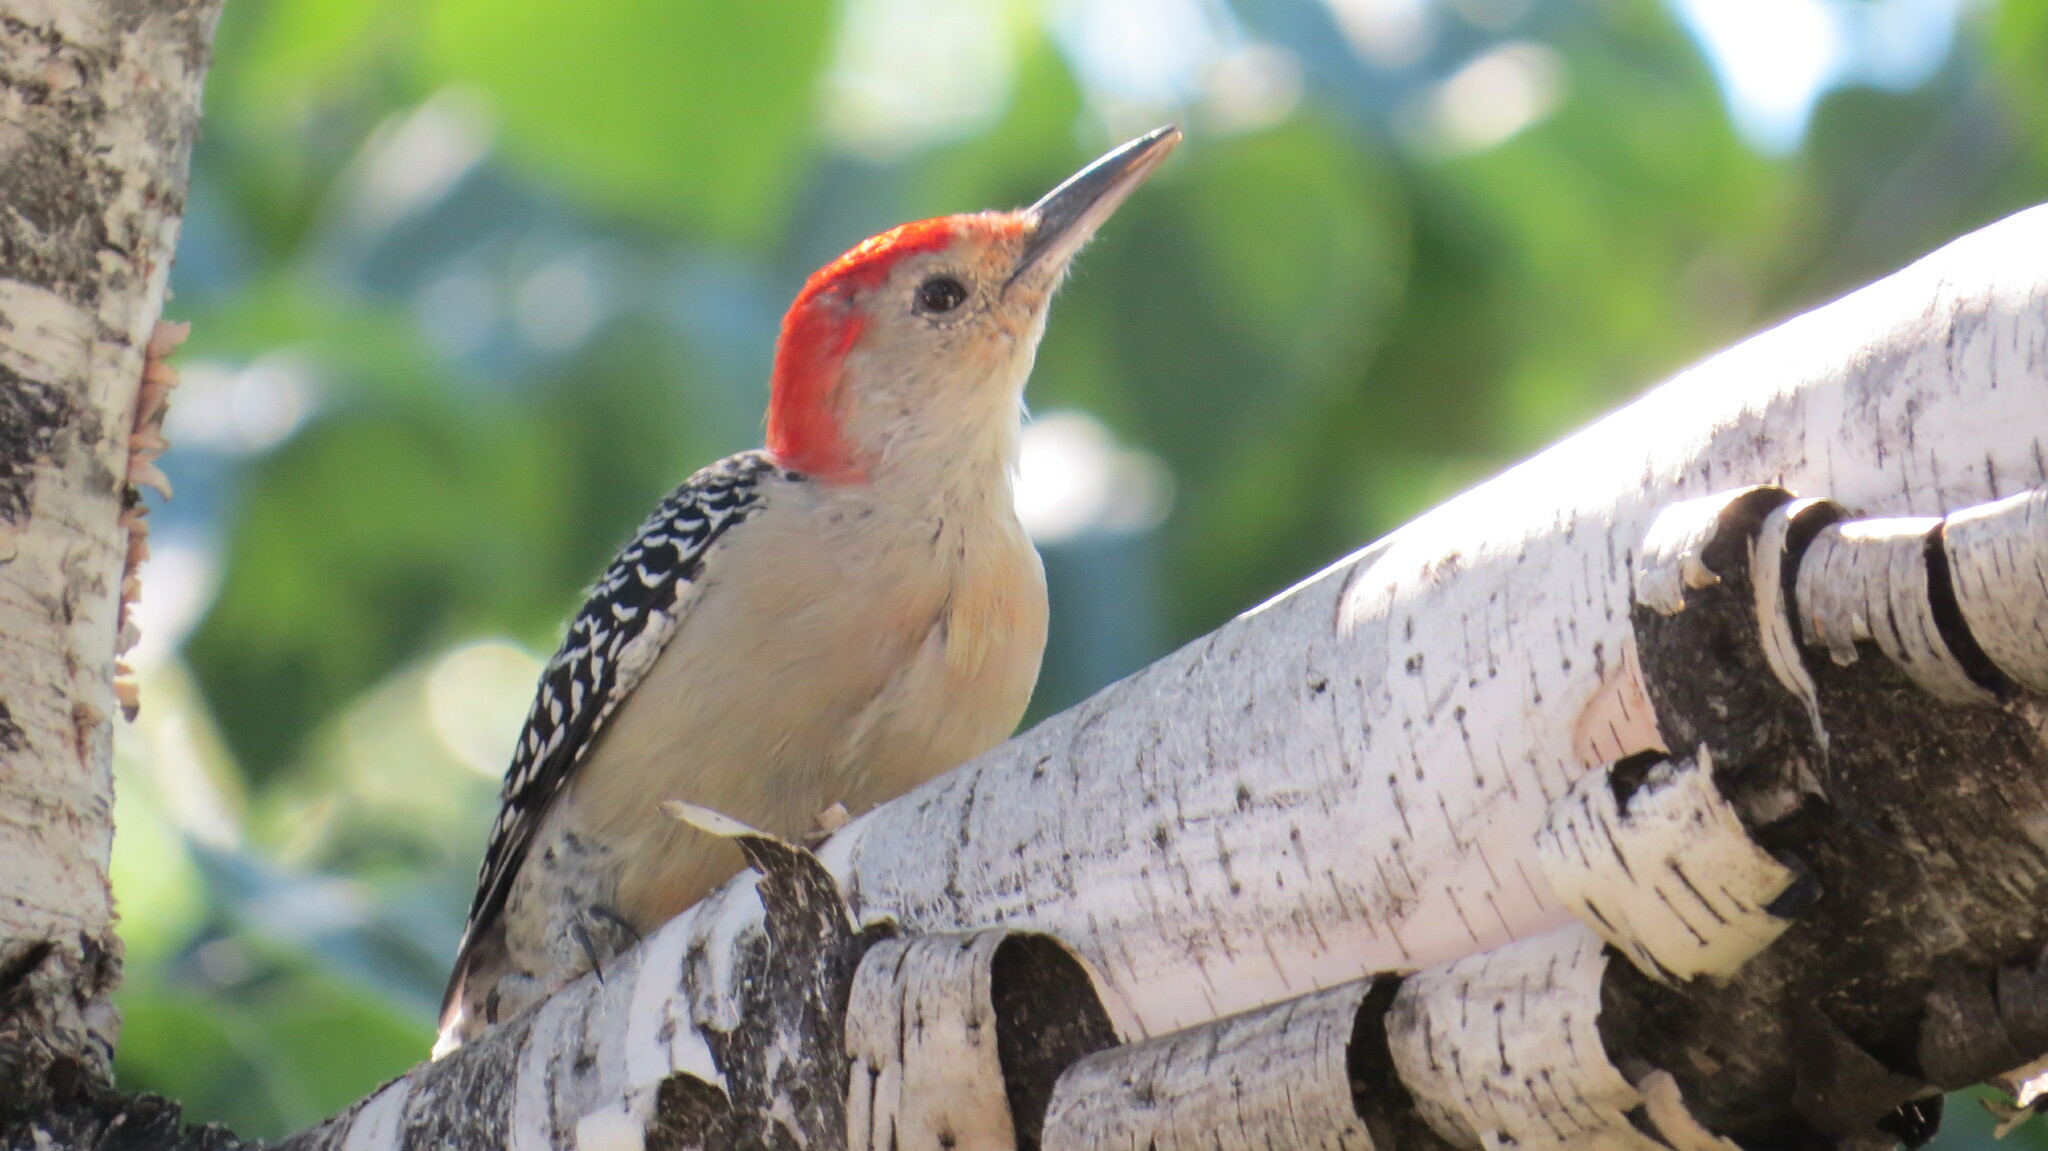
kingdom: Animalia
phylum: Chordata
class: Aves
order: Piciformes
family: Picidae
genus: Melanerpes
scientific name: Melanerpes carolinus
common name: Red-bellied woodpecker
